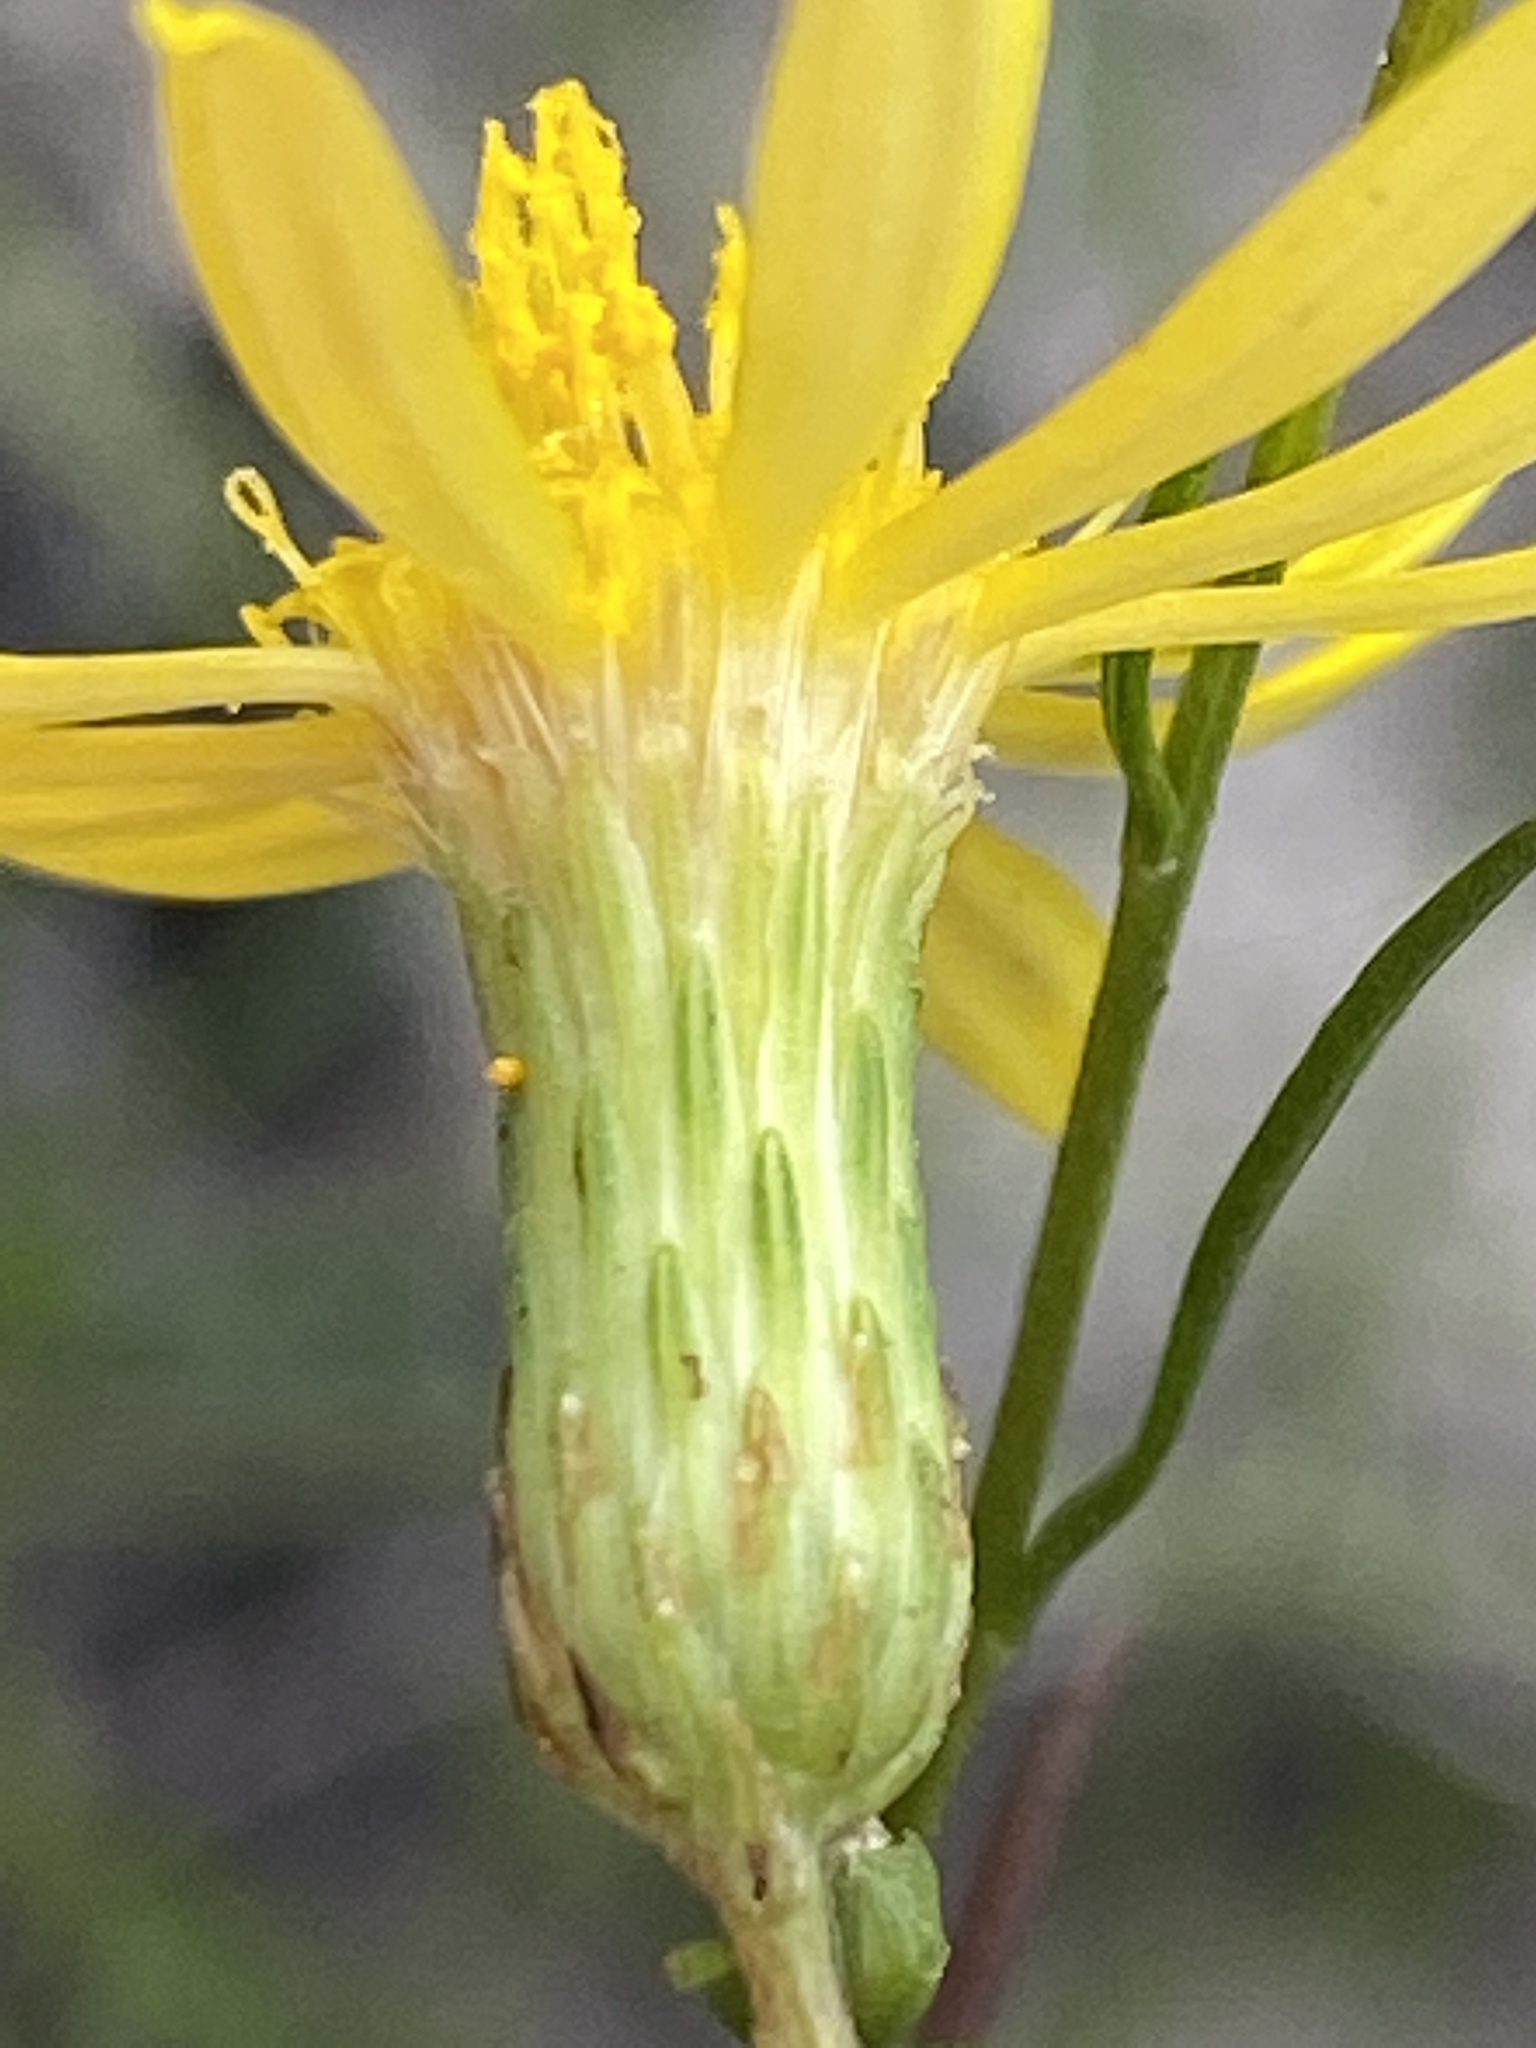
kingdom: Plantae
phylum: Tracheophyta
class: Magnoliopsida
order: Asterales
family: Asteraceae
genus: Pityopsis
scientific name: Pityopsis pinifolia
